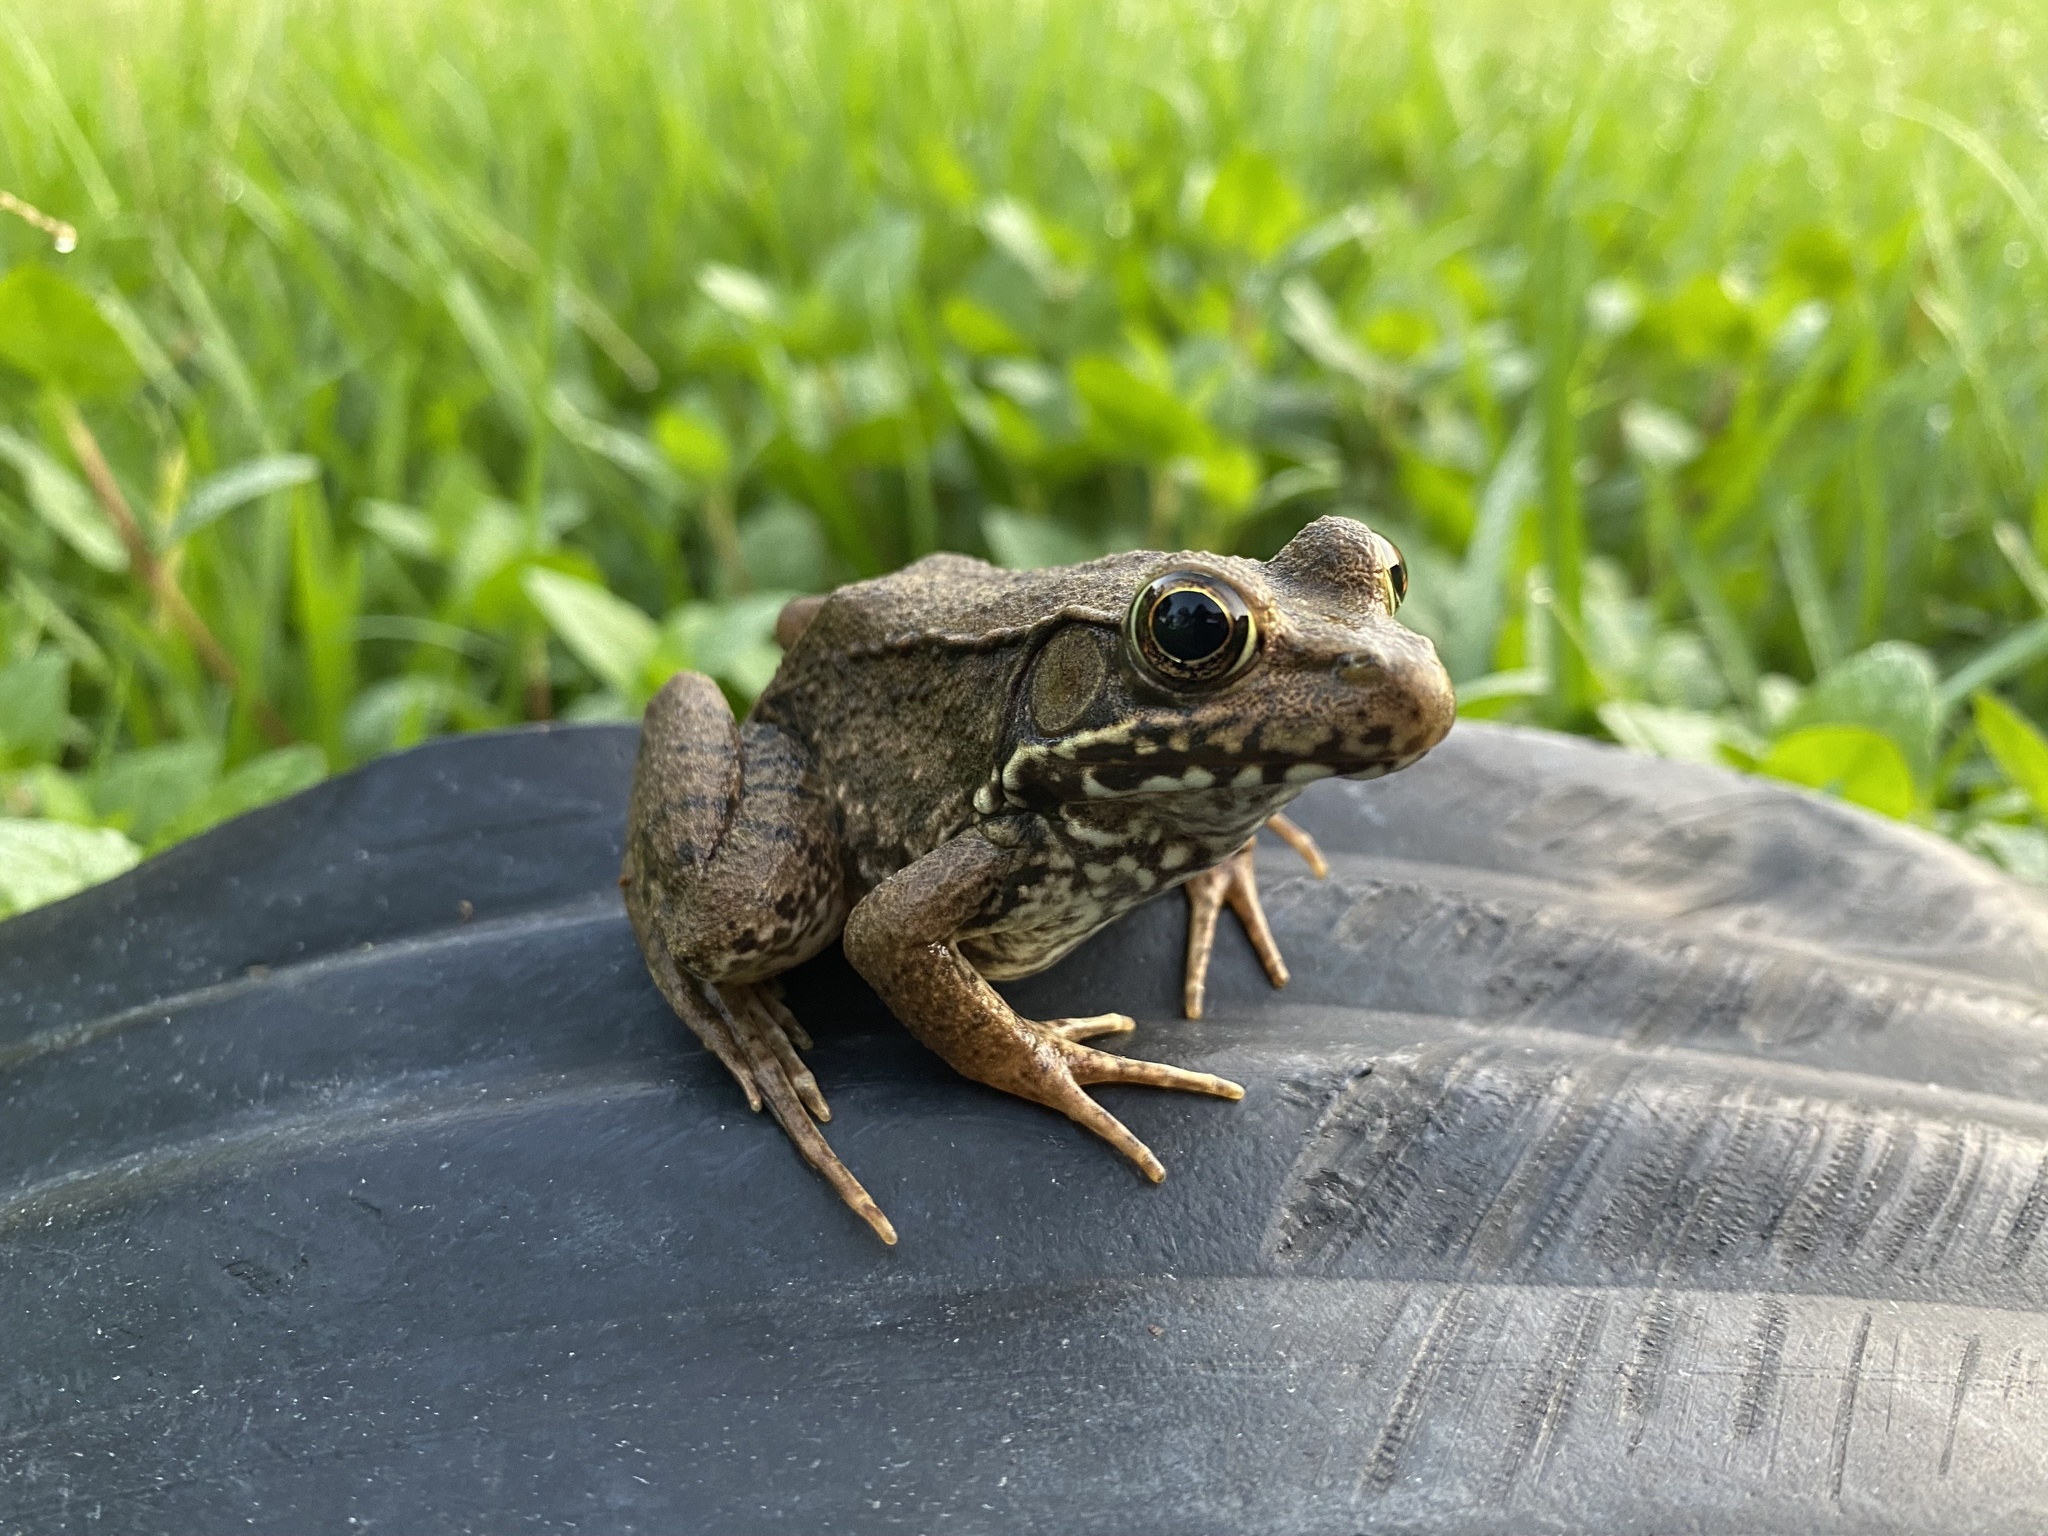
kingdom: Animalia
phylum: Chordata
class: Amphibia
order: Anura
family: Ranidae
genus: Lithobates
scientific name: Lithobates clamitans
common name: Green frog
